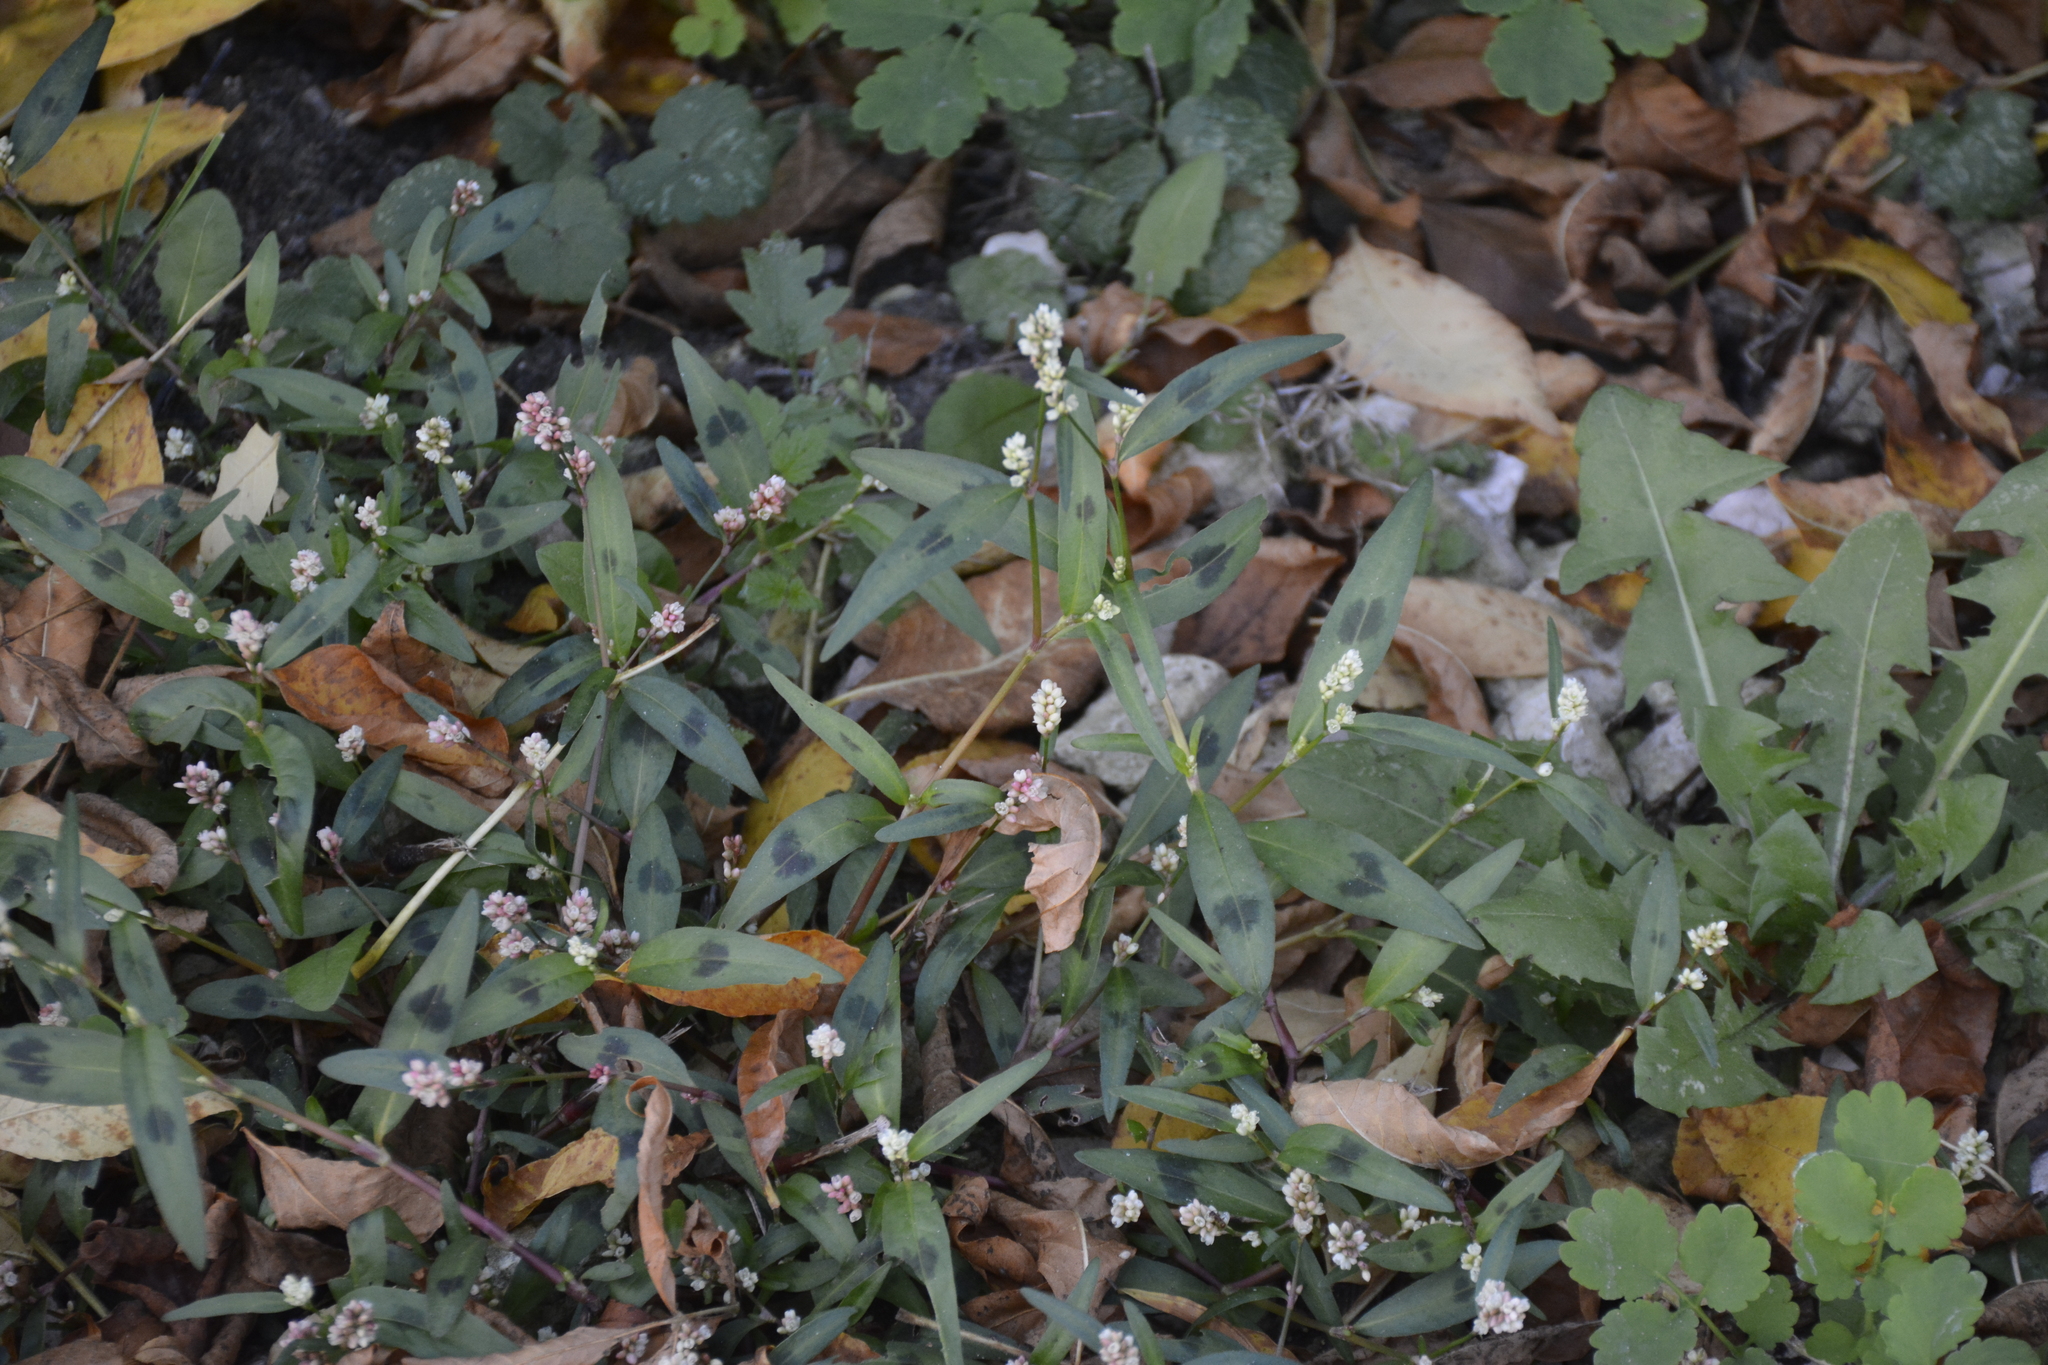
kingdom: Plantae
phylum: Tracheophyta
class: Magnoliopsida
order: Caryophyllales
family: Polygonaceae
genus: Persicaria
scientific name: Persicaria maculosa
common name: Redshank
